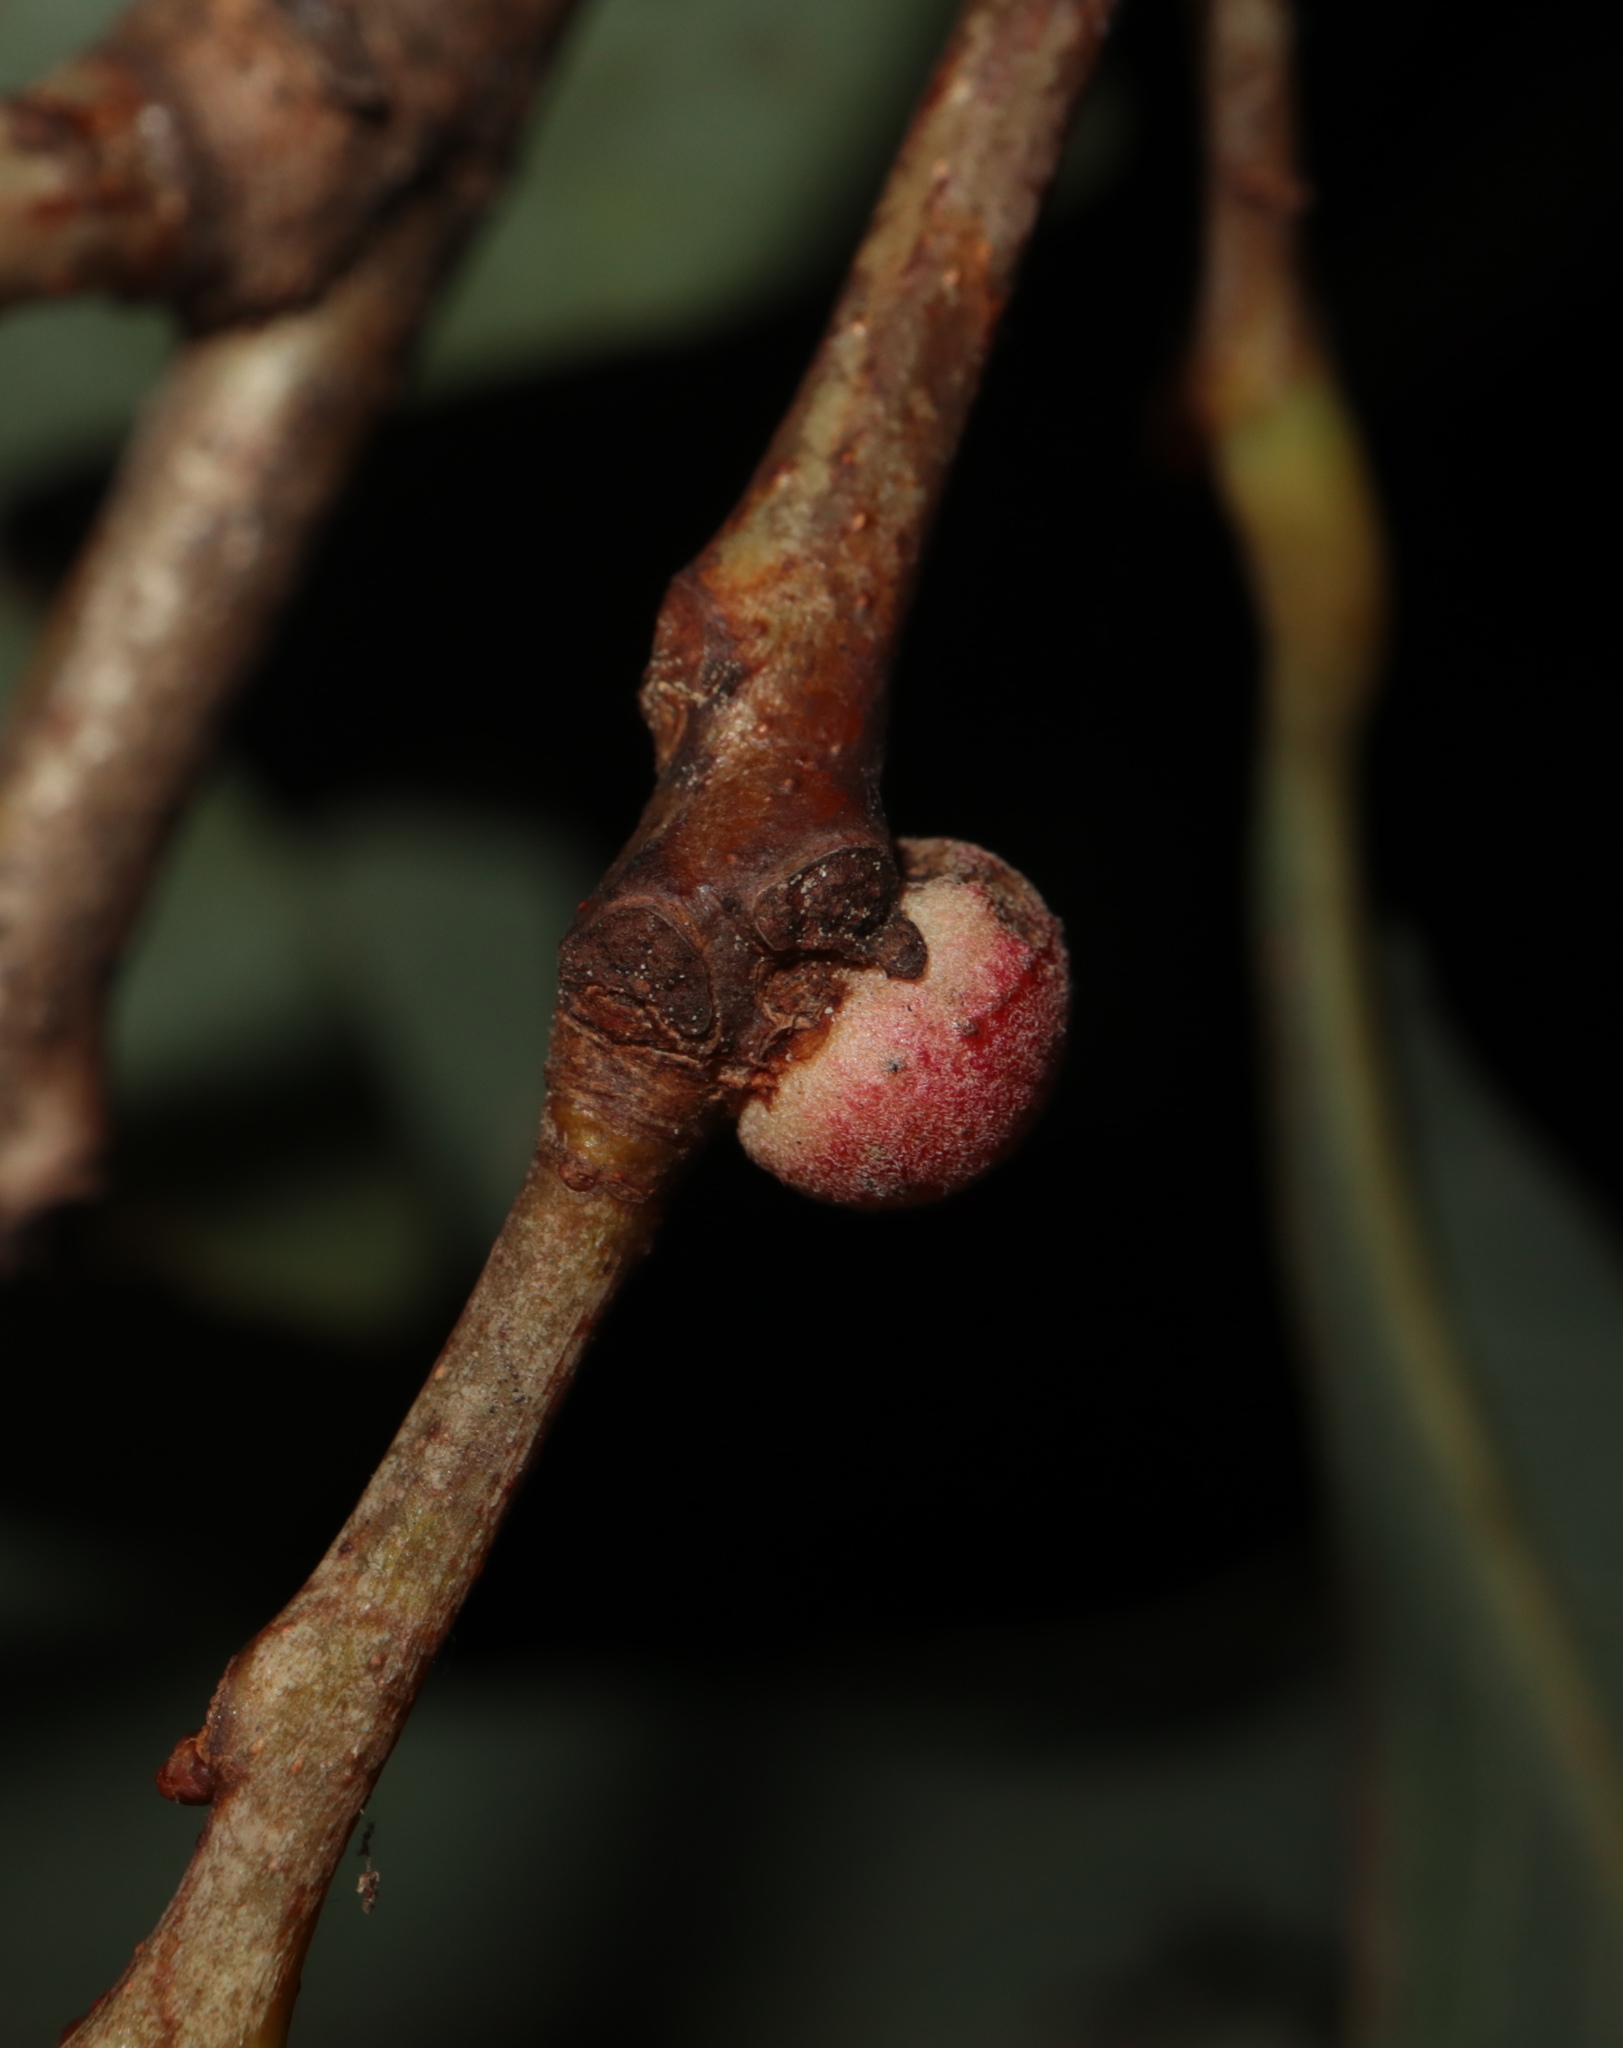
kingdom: Animalia
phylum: Arthropoda
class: Insecta
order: Hymenoptera
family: Cynipidae
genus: Disholcaspis
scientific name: Disholcaspis quercusglobulus
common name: Round bullet gall wasp
